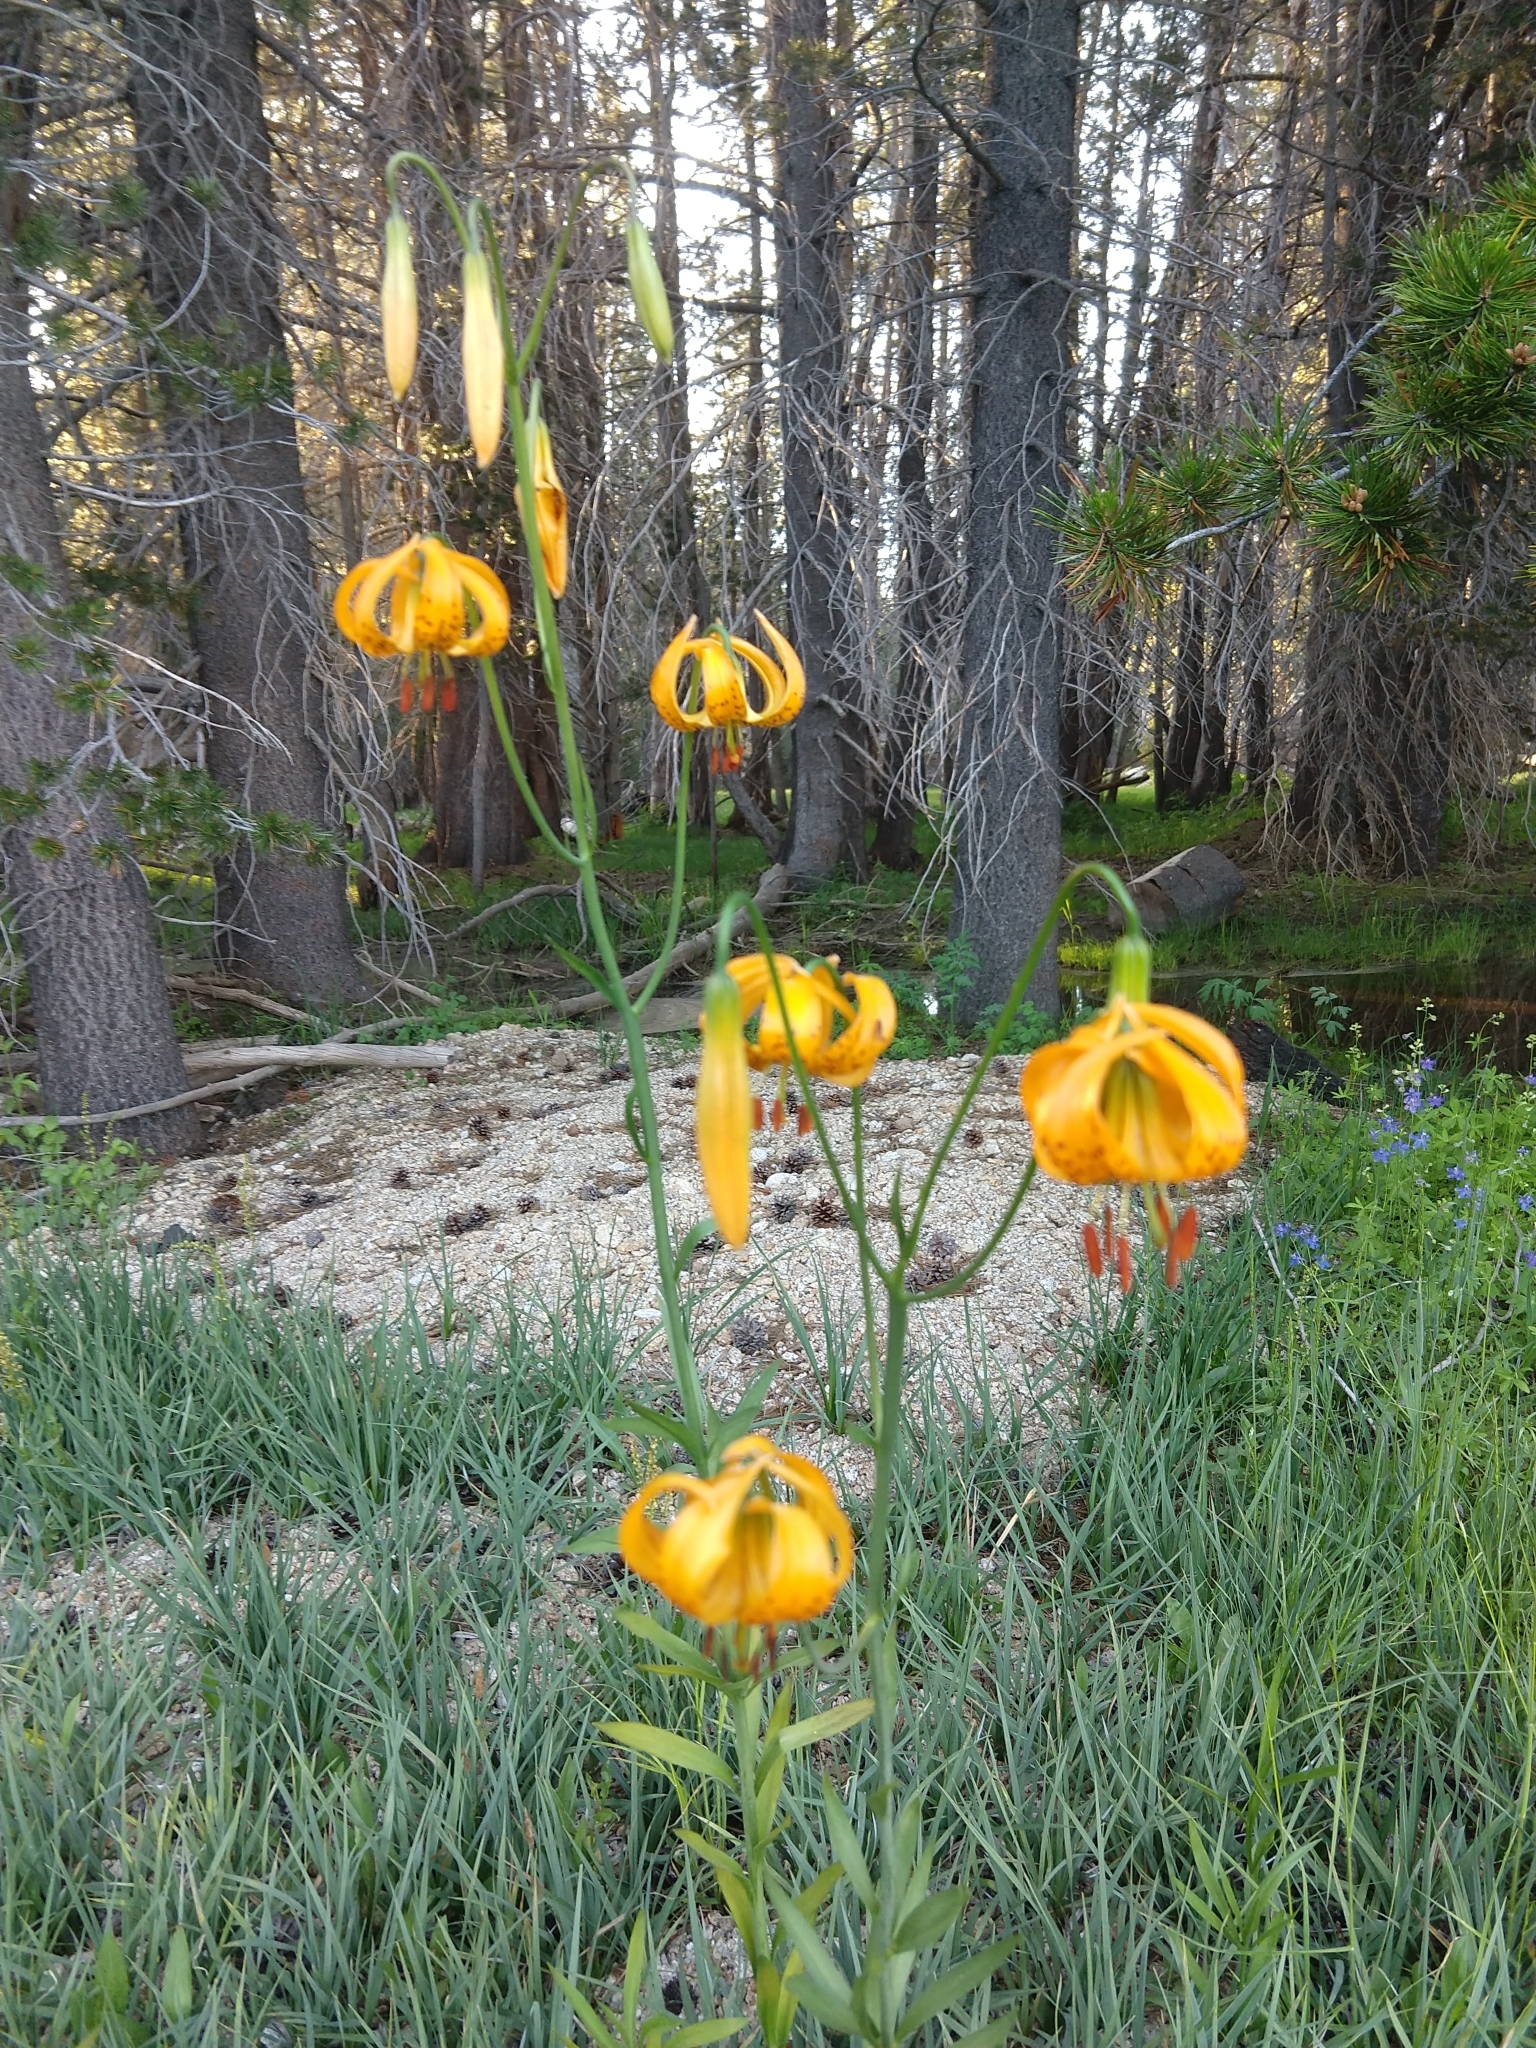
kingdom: Plantae
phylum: Tracheophyta
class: Liliopsida
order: Liliales
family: Liliaceae
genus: Lilium
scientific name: Lilium kelleyanum
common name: Kelley's lily
